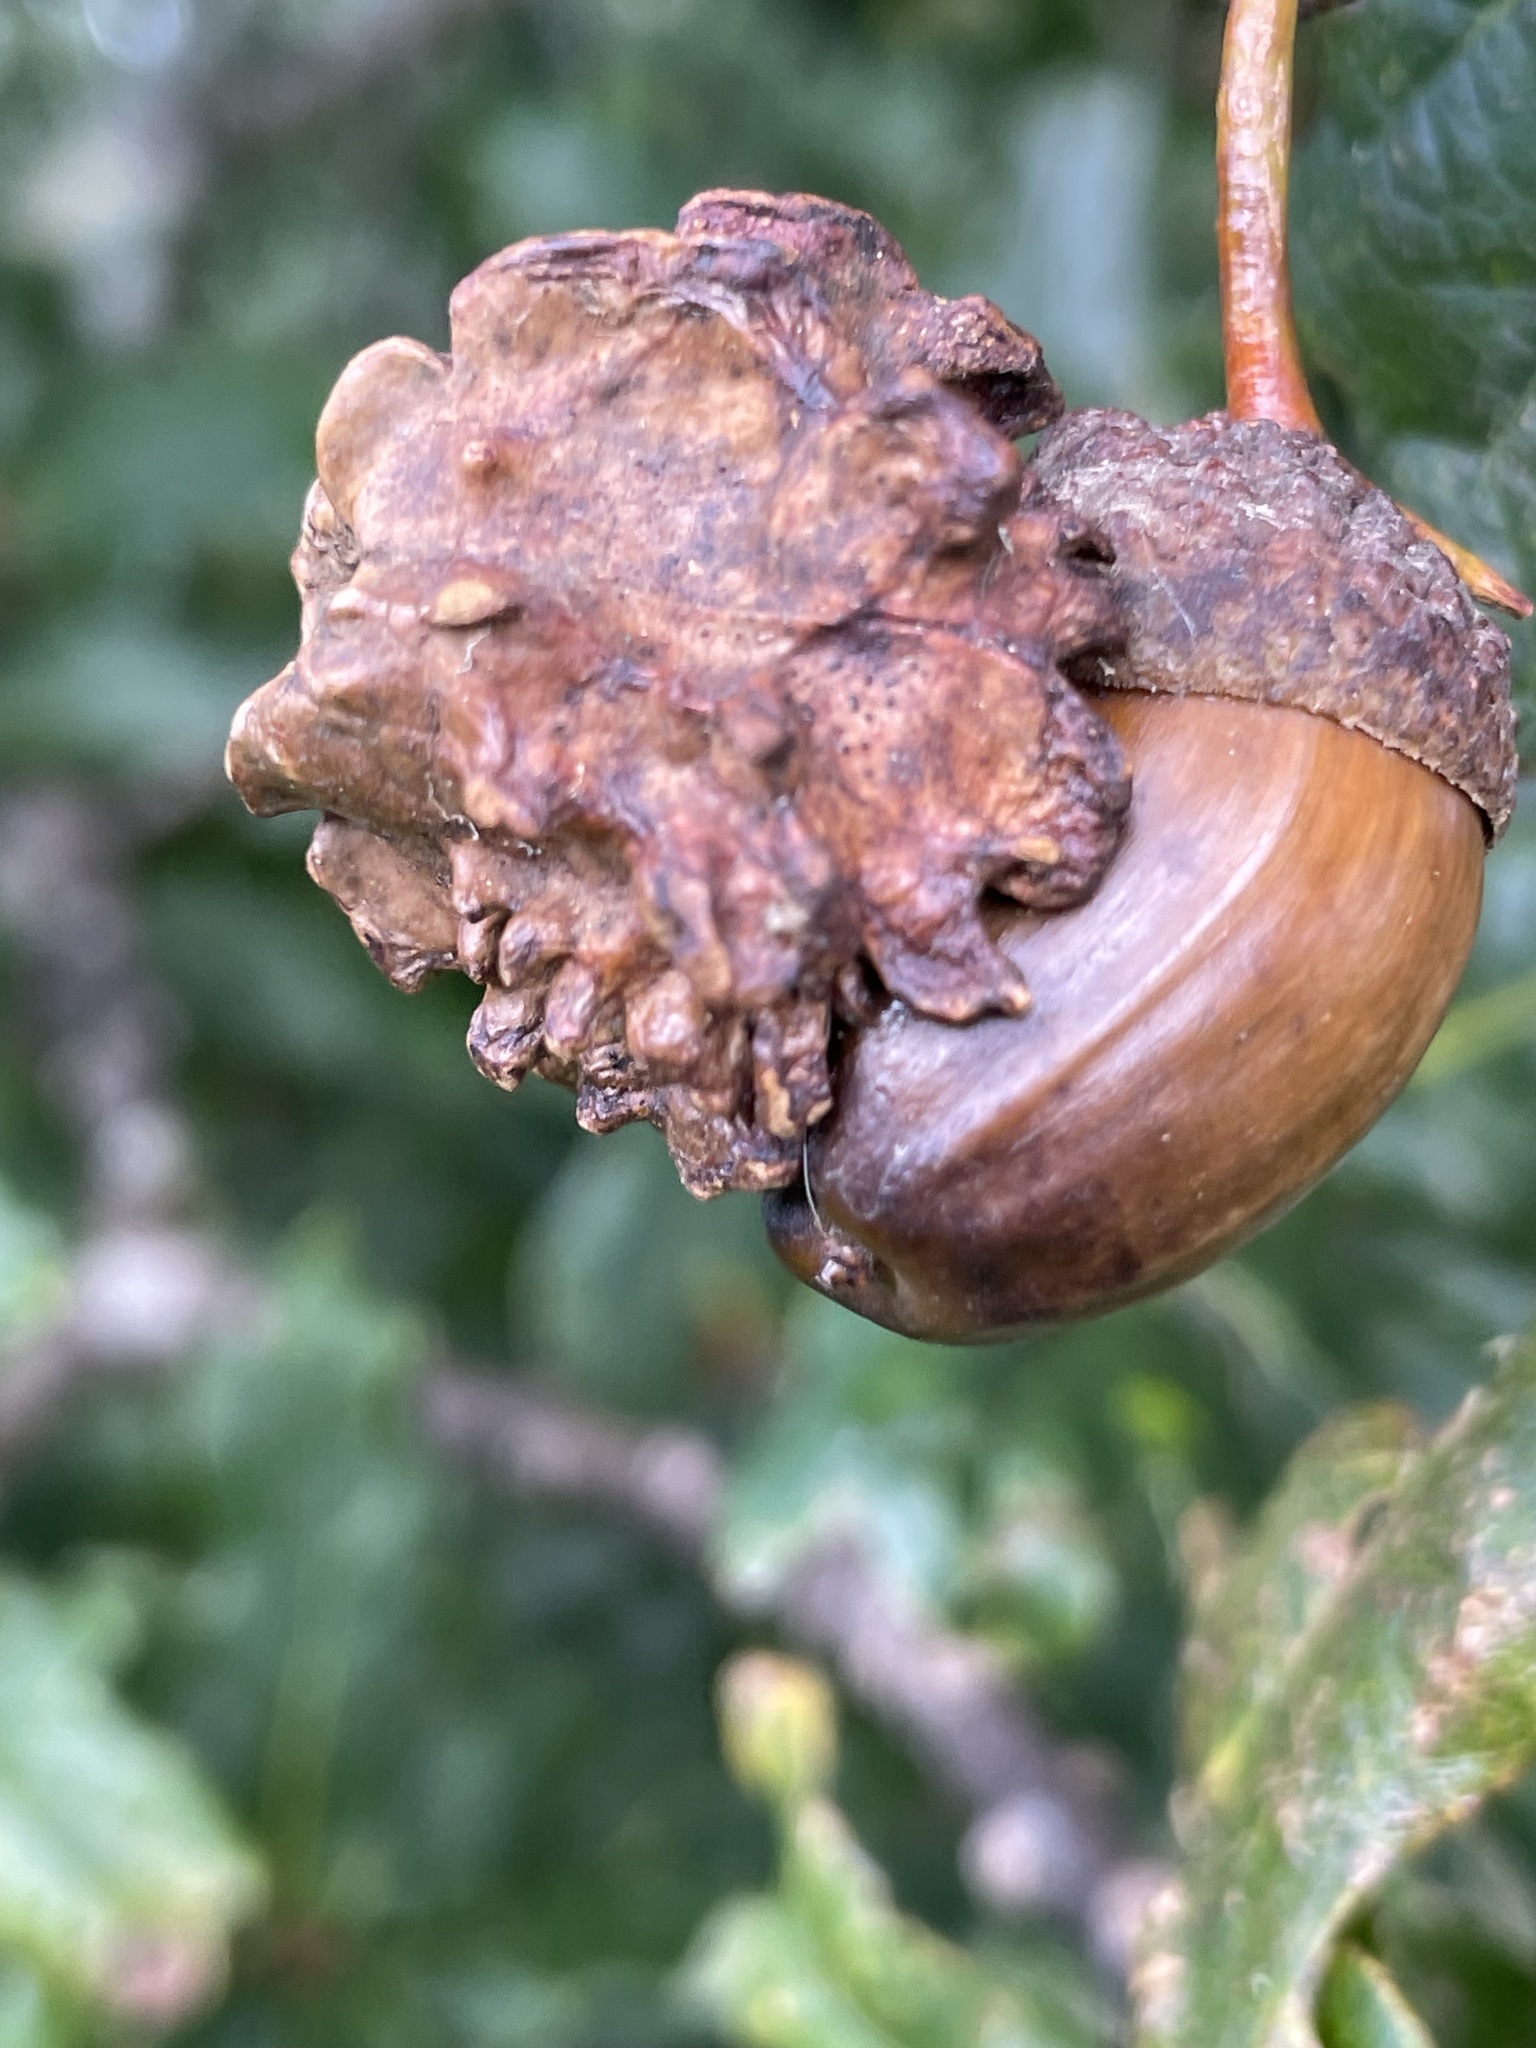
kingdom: Animalia
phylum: Arthropoda
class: Insecta
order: Hymenoptera
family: Cynipidae
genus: Andricus
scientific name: Andricus quercuscalicis
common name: Knopper gall
